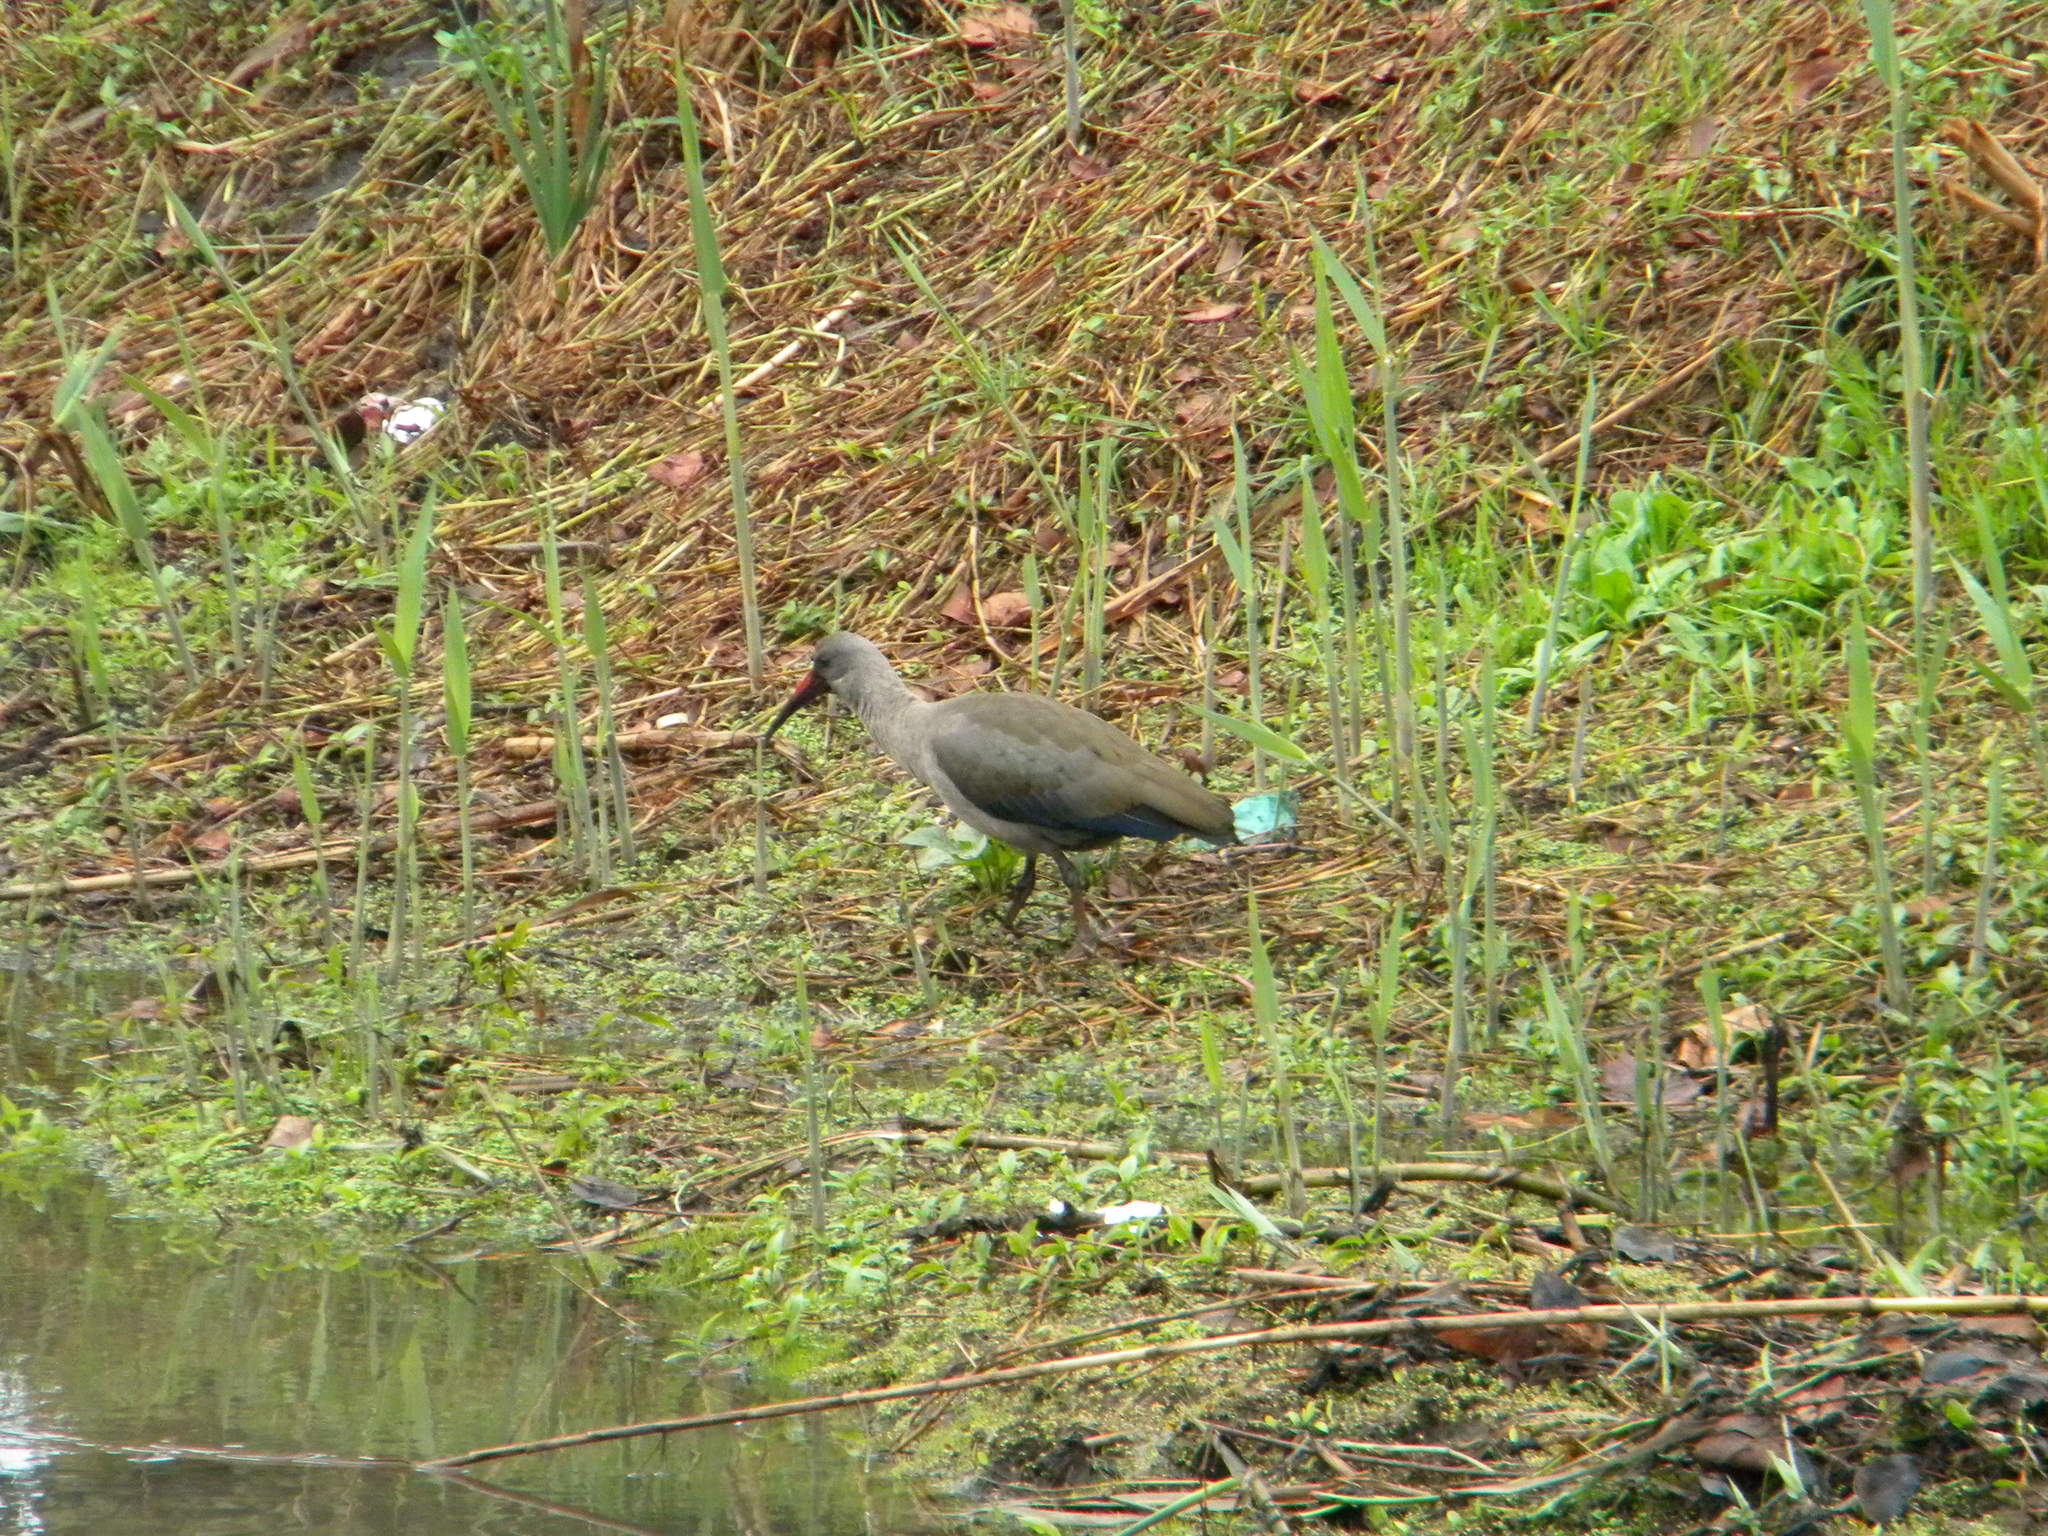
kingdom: Animalia
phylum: Chordata
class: Aves
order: Pelecaniformes
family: Threskiornithidae
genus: Bostrychia
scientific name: Bostrychia hagedash
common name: Hadada ibis
